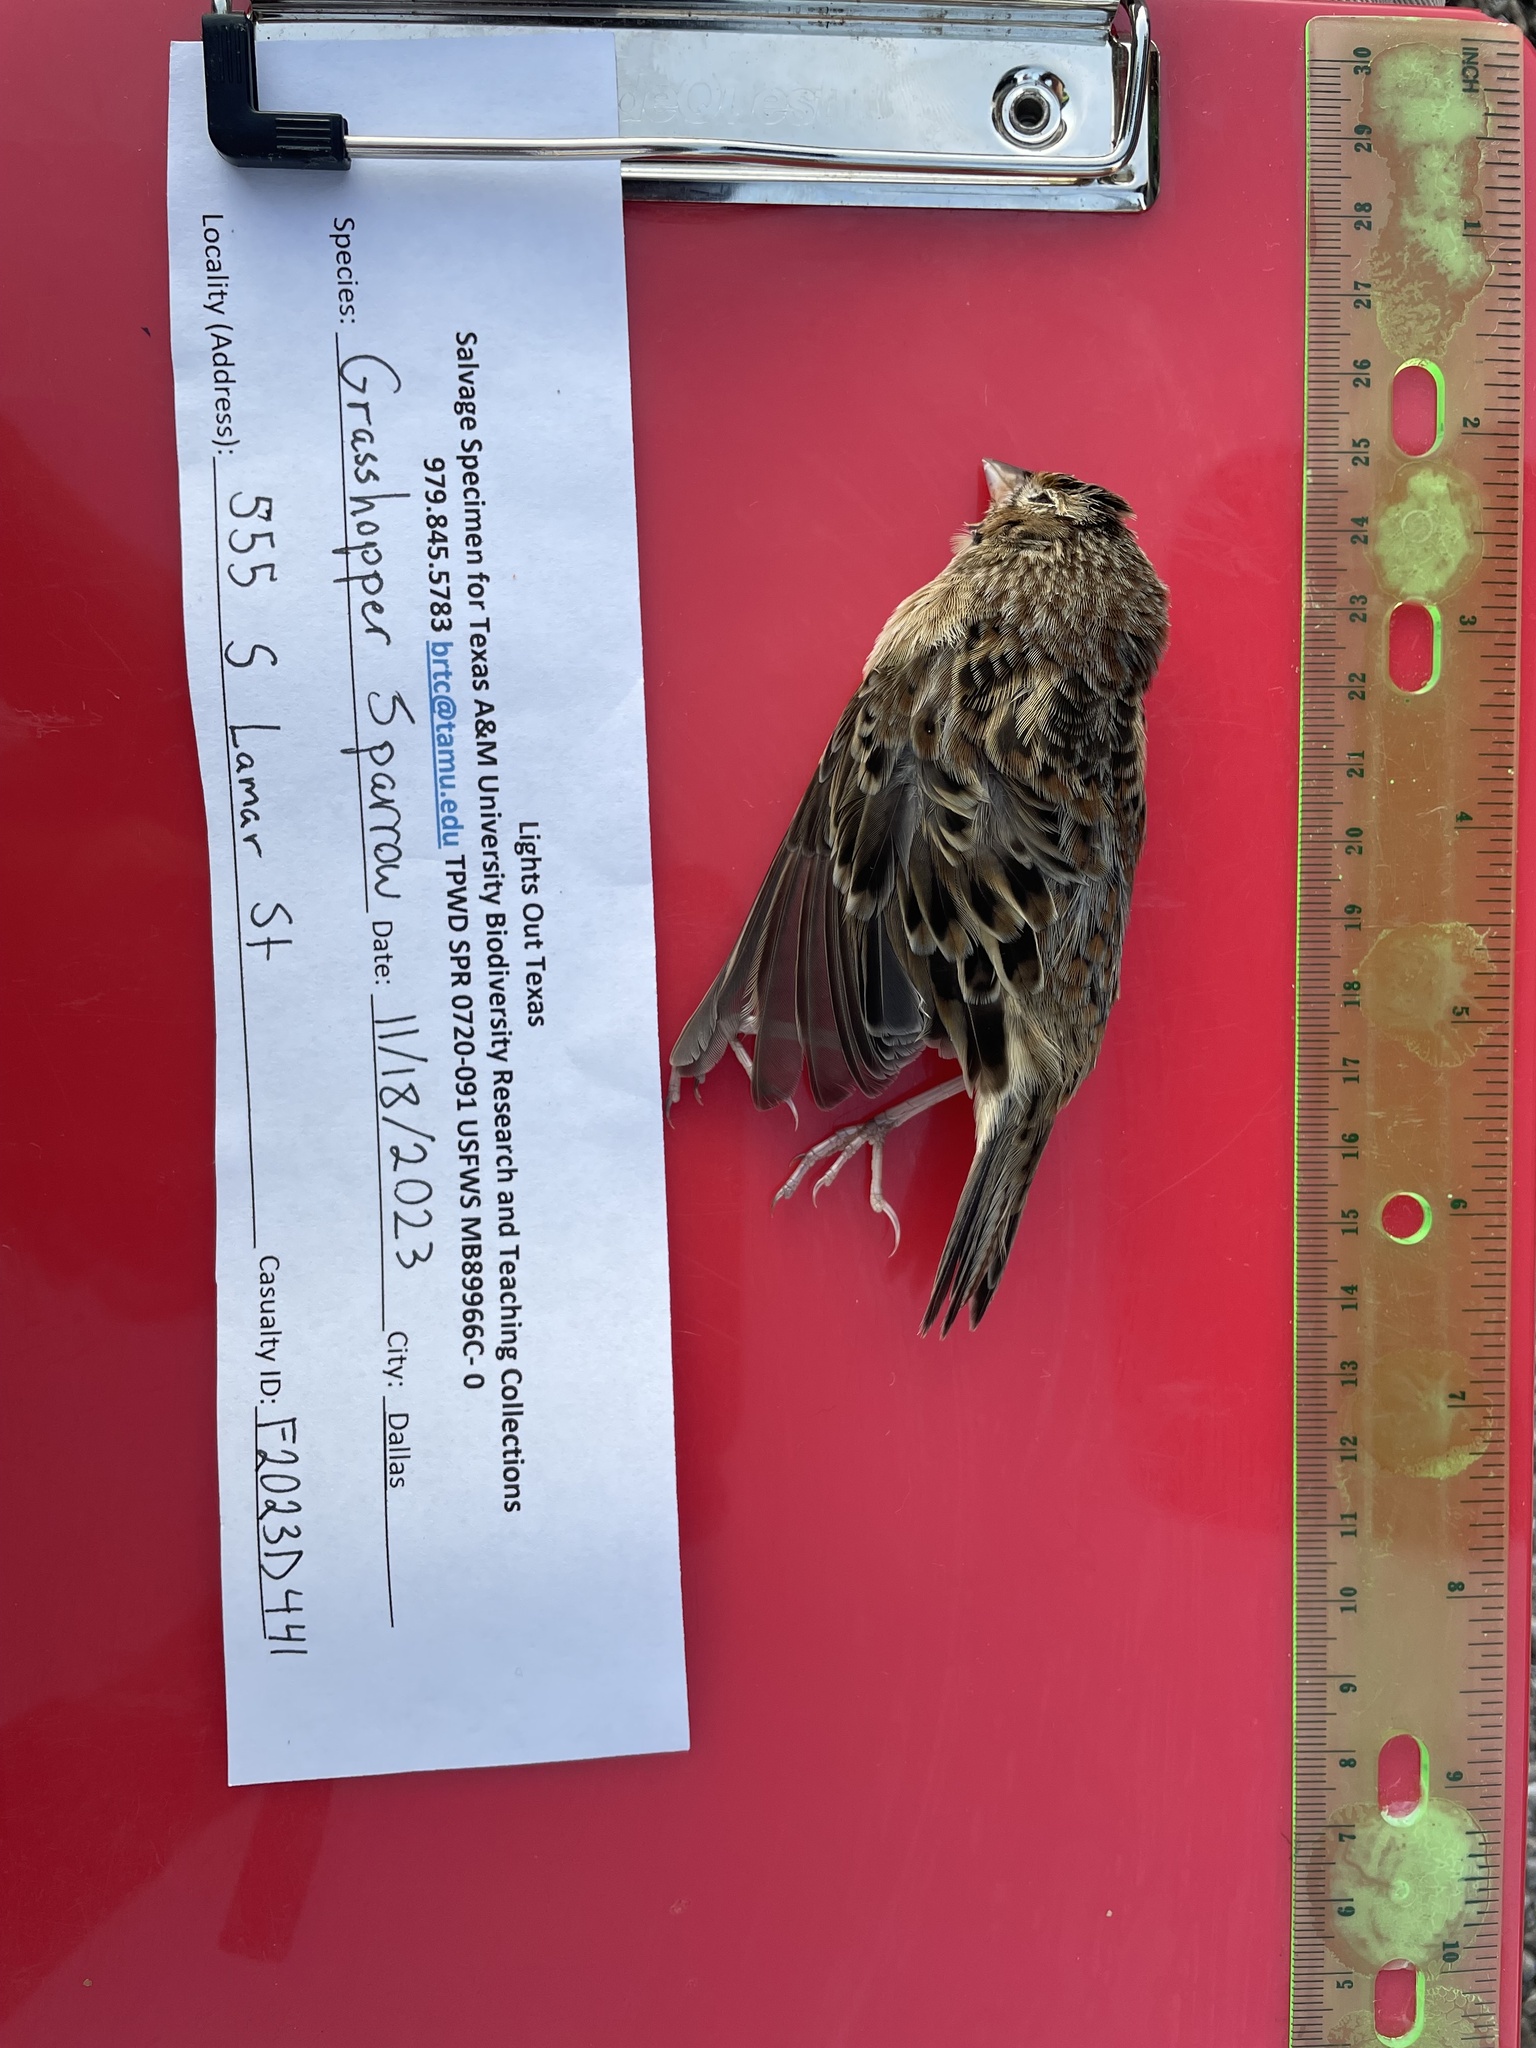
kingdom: Animalia
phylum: Chordata
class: Aves
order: Passeriformes
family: Passerellidae
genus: Ammodramus
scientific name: Ammodramus savannarum
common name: Grasshopper sparrow
